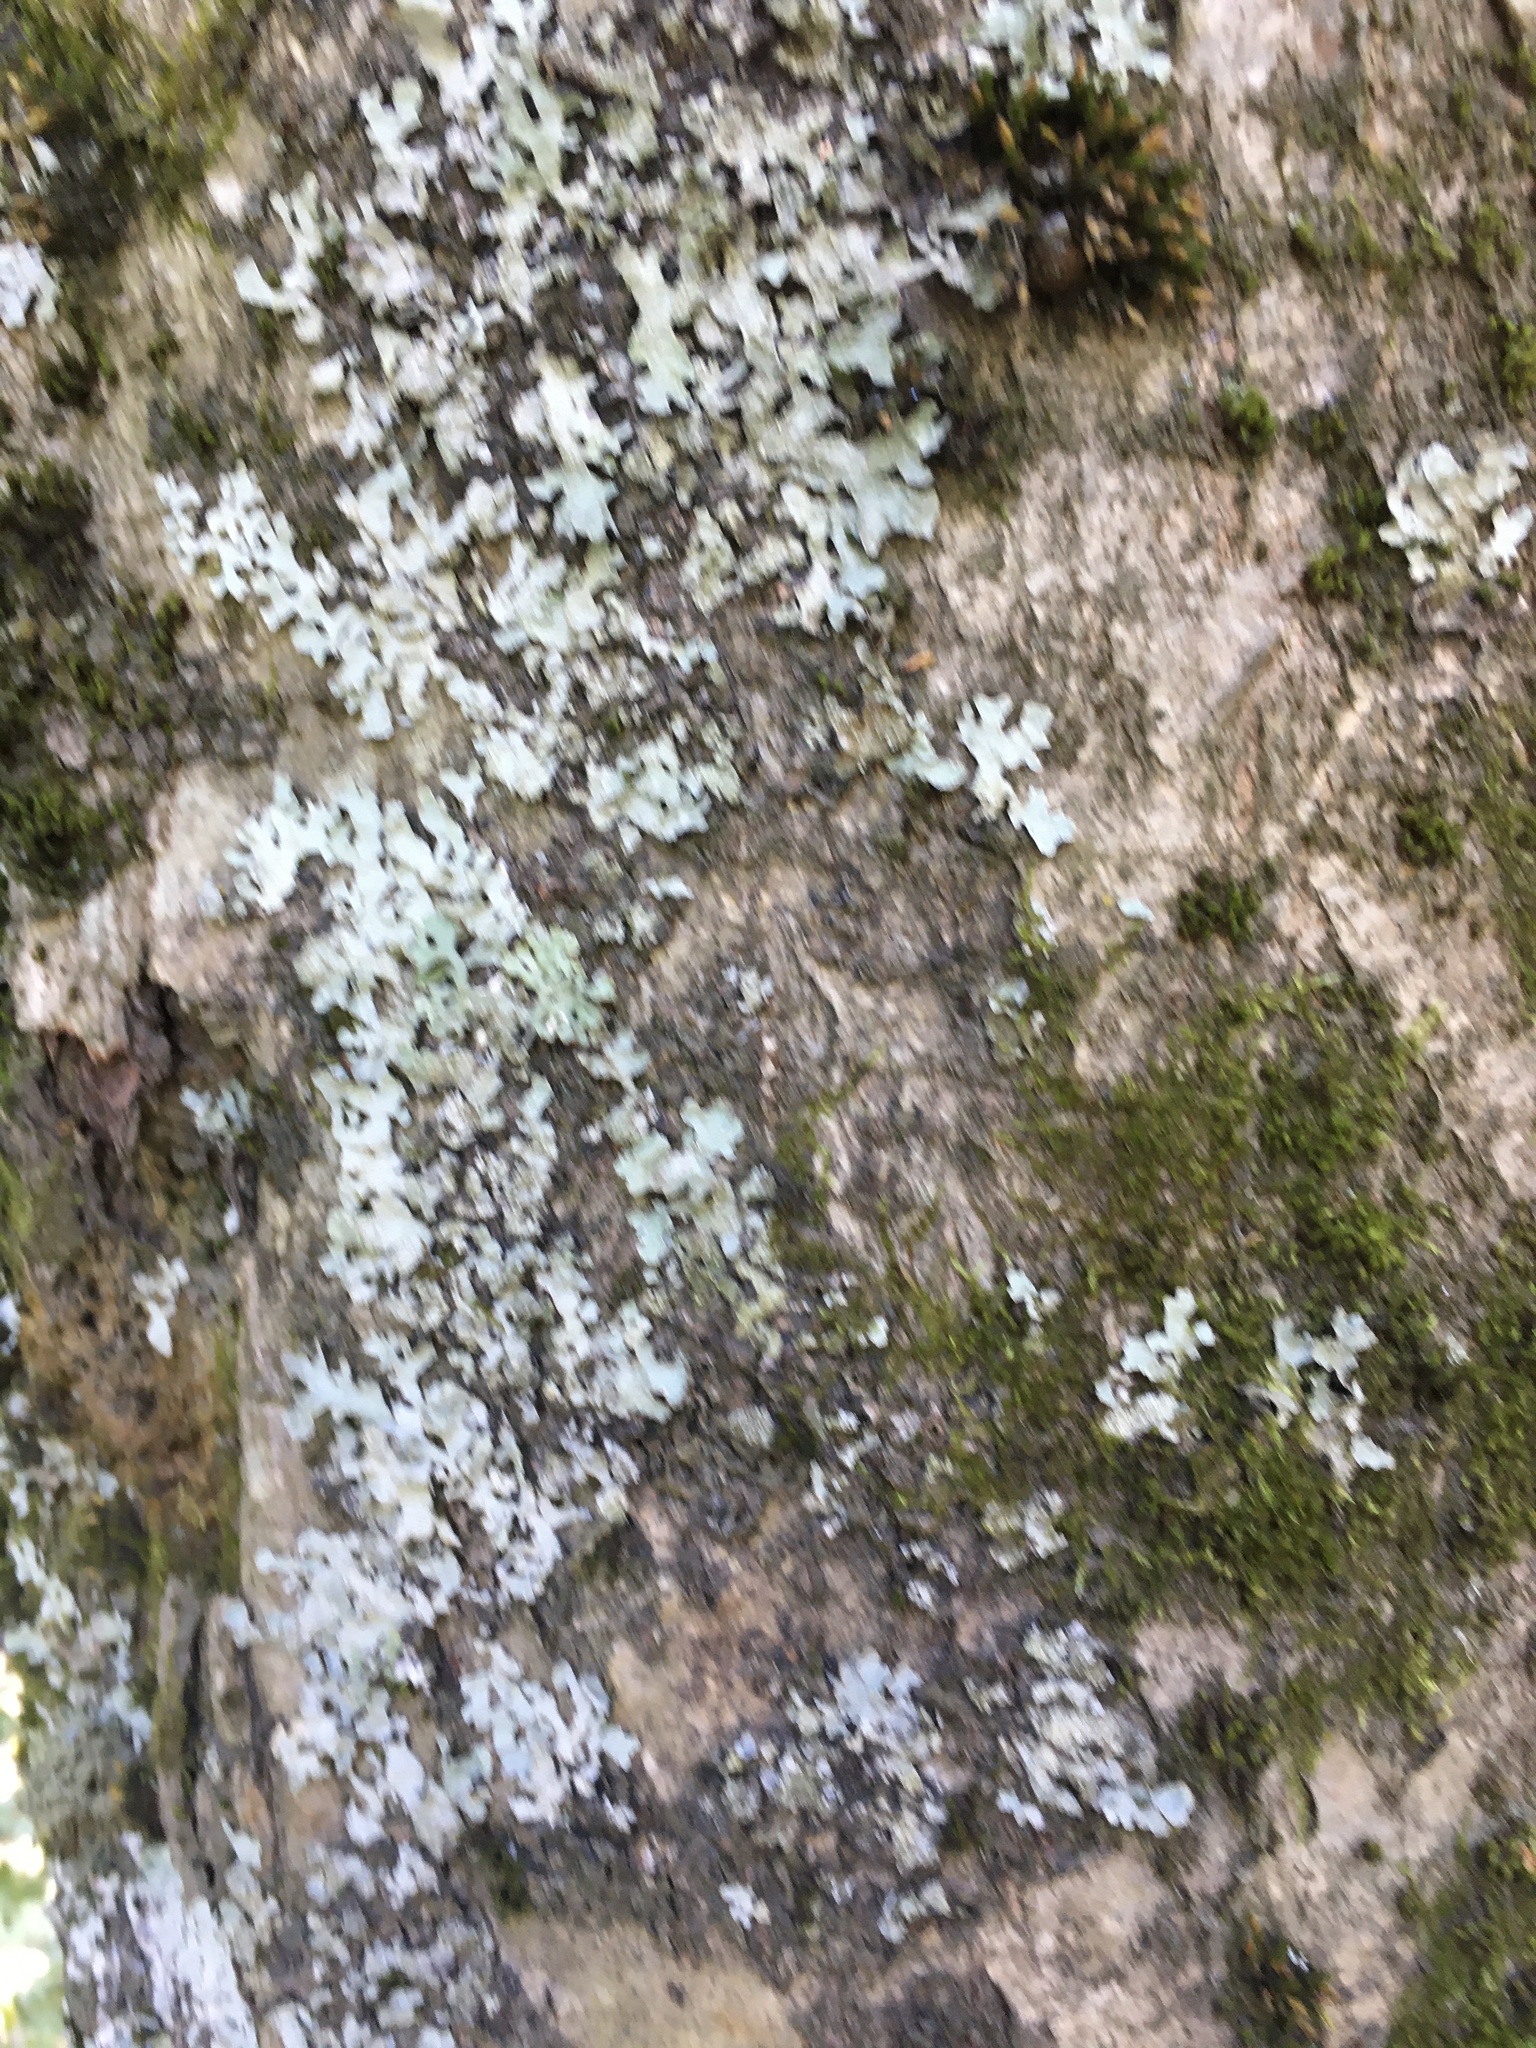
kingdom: Fungi
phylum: Ascomycota
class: Lecanoromycetes
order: Lecanorales
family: Parmeliaceae
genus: Parmelia
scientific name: Parmelia sulcata
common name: Netted shield lichen
